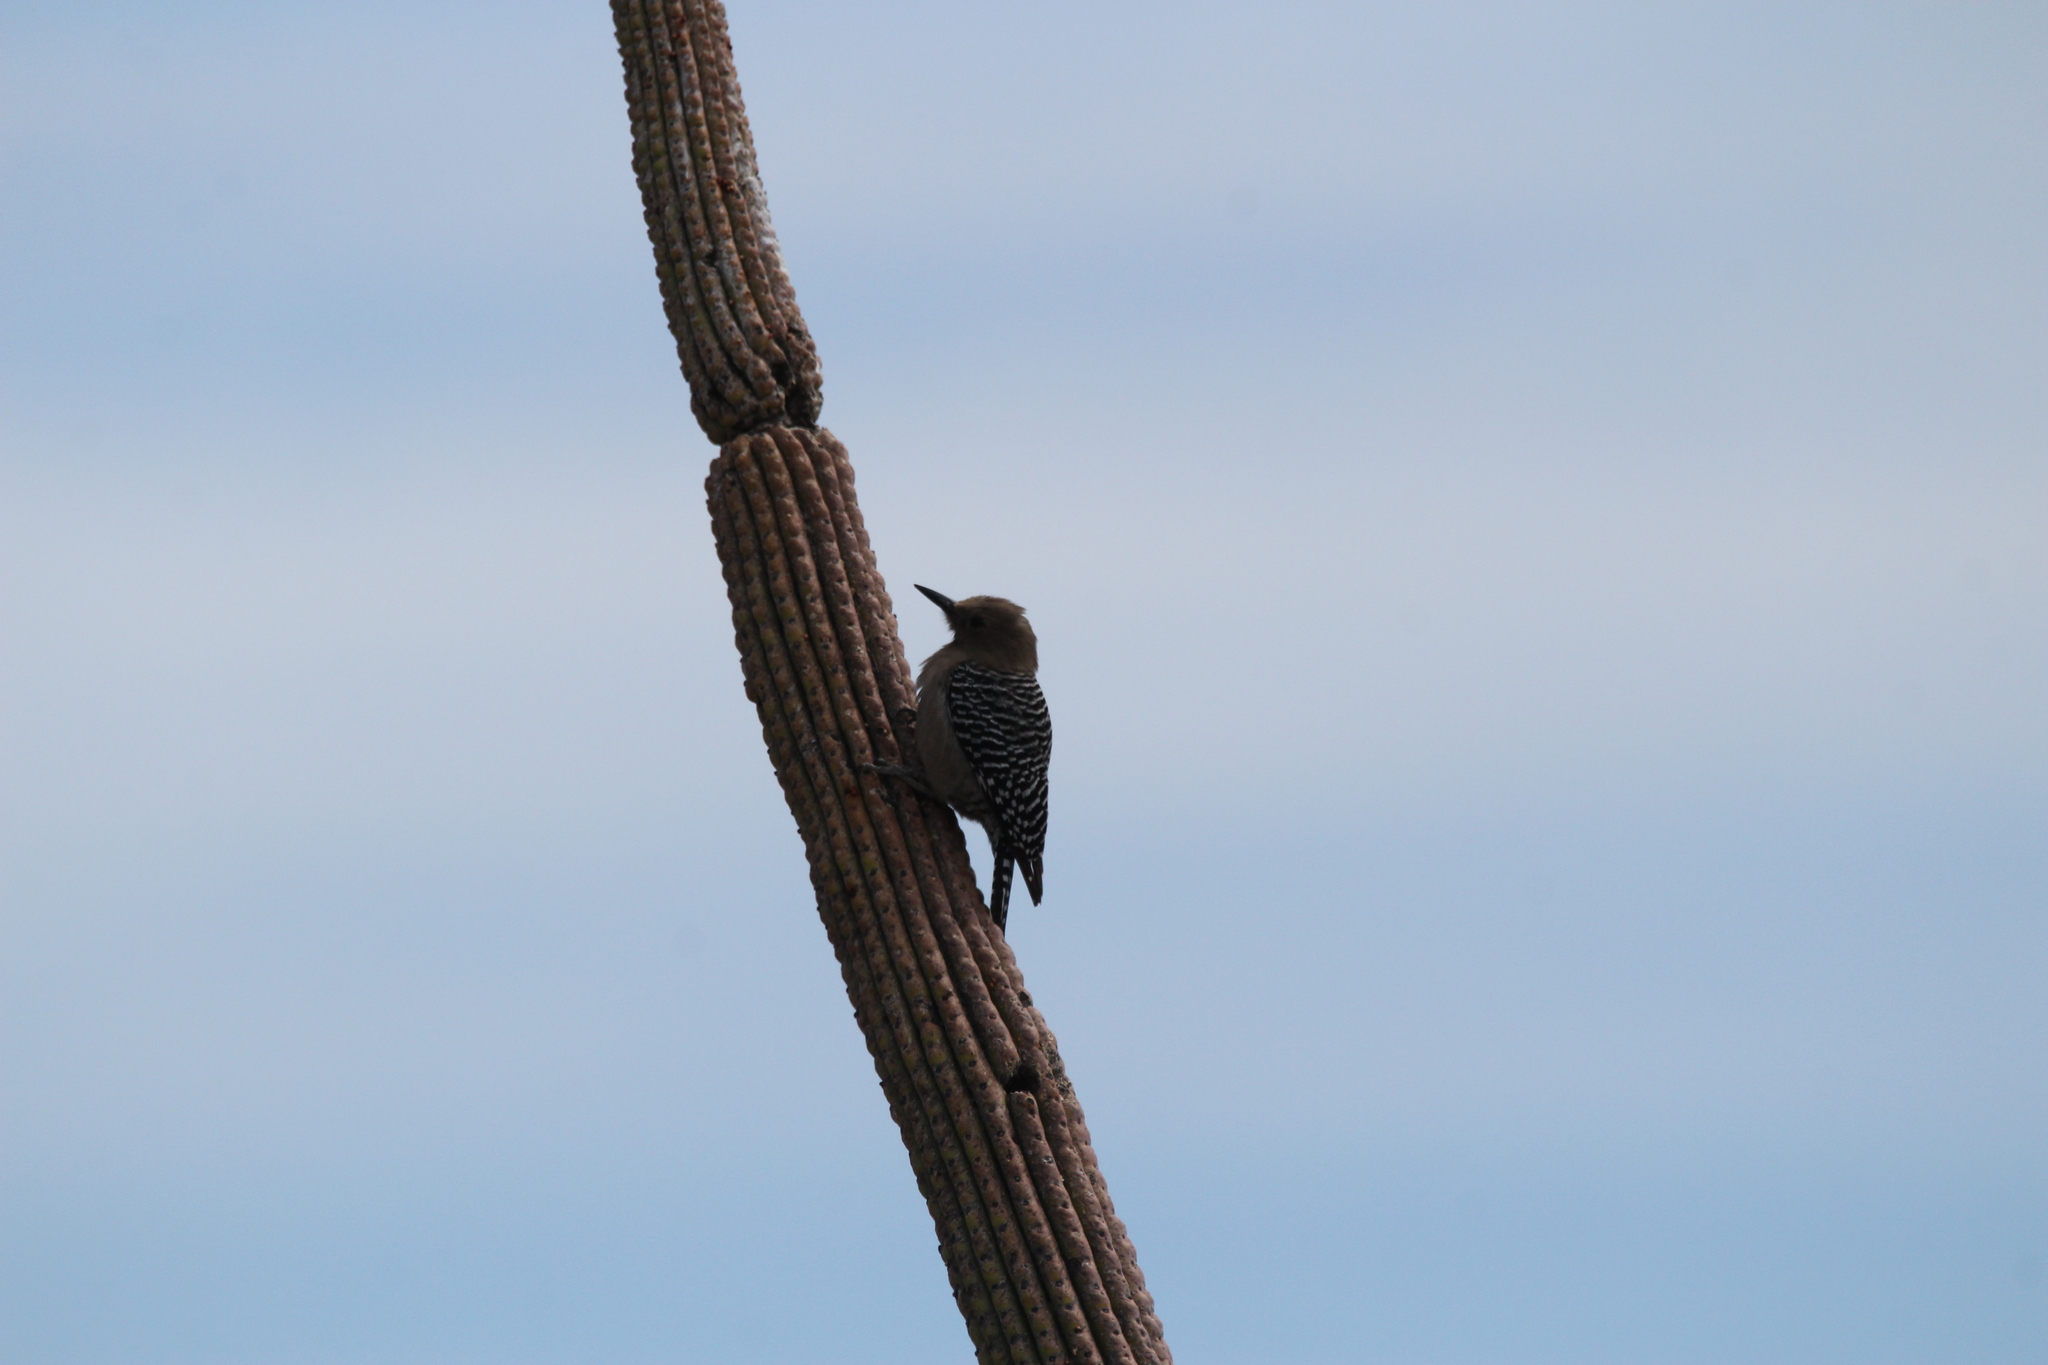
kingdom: Animalia
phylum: Chordata
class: Aves
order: Piciformes
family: Picidae
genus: Melanerpes
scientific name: Melanerpes uropygialis
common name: Gila woodpecker
